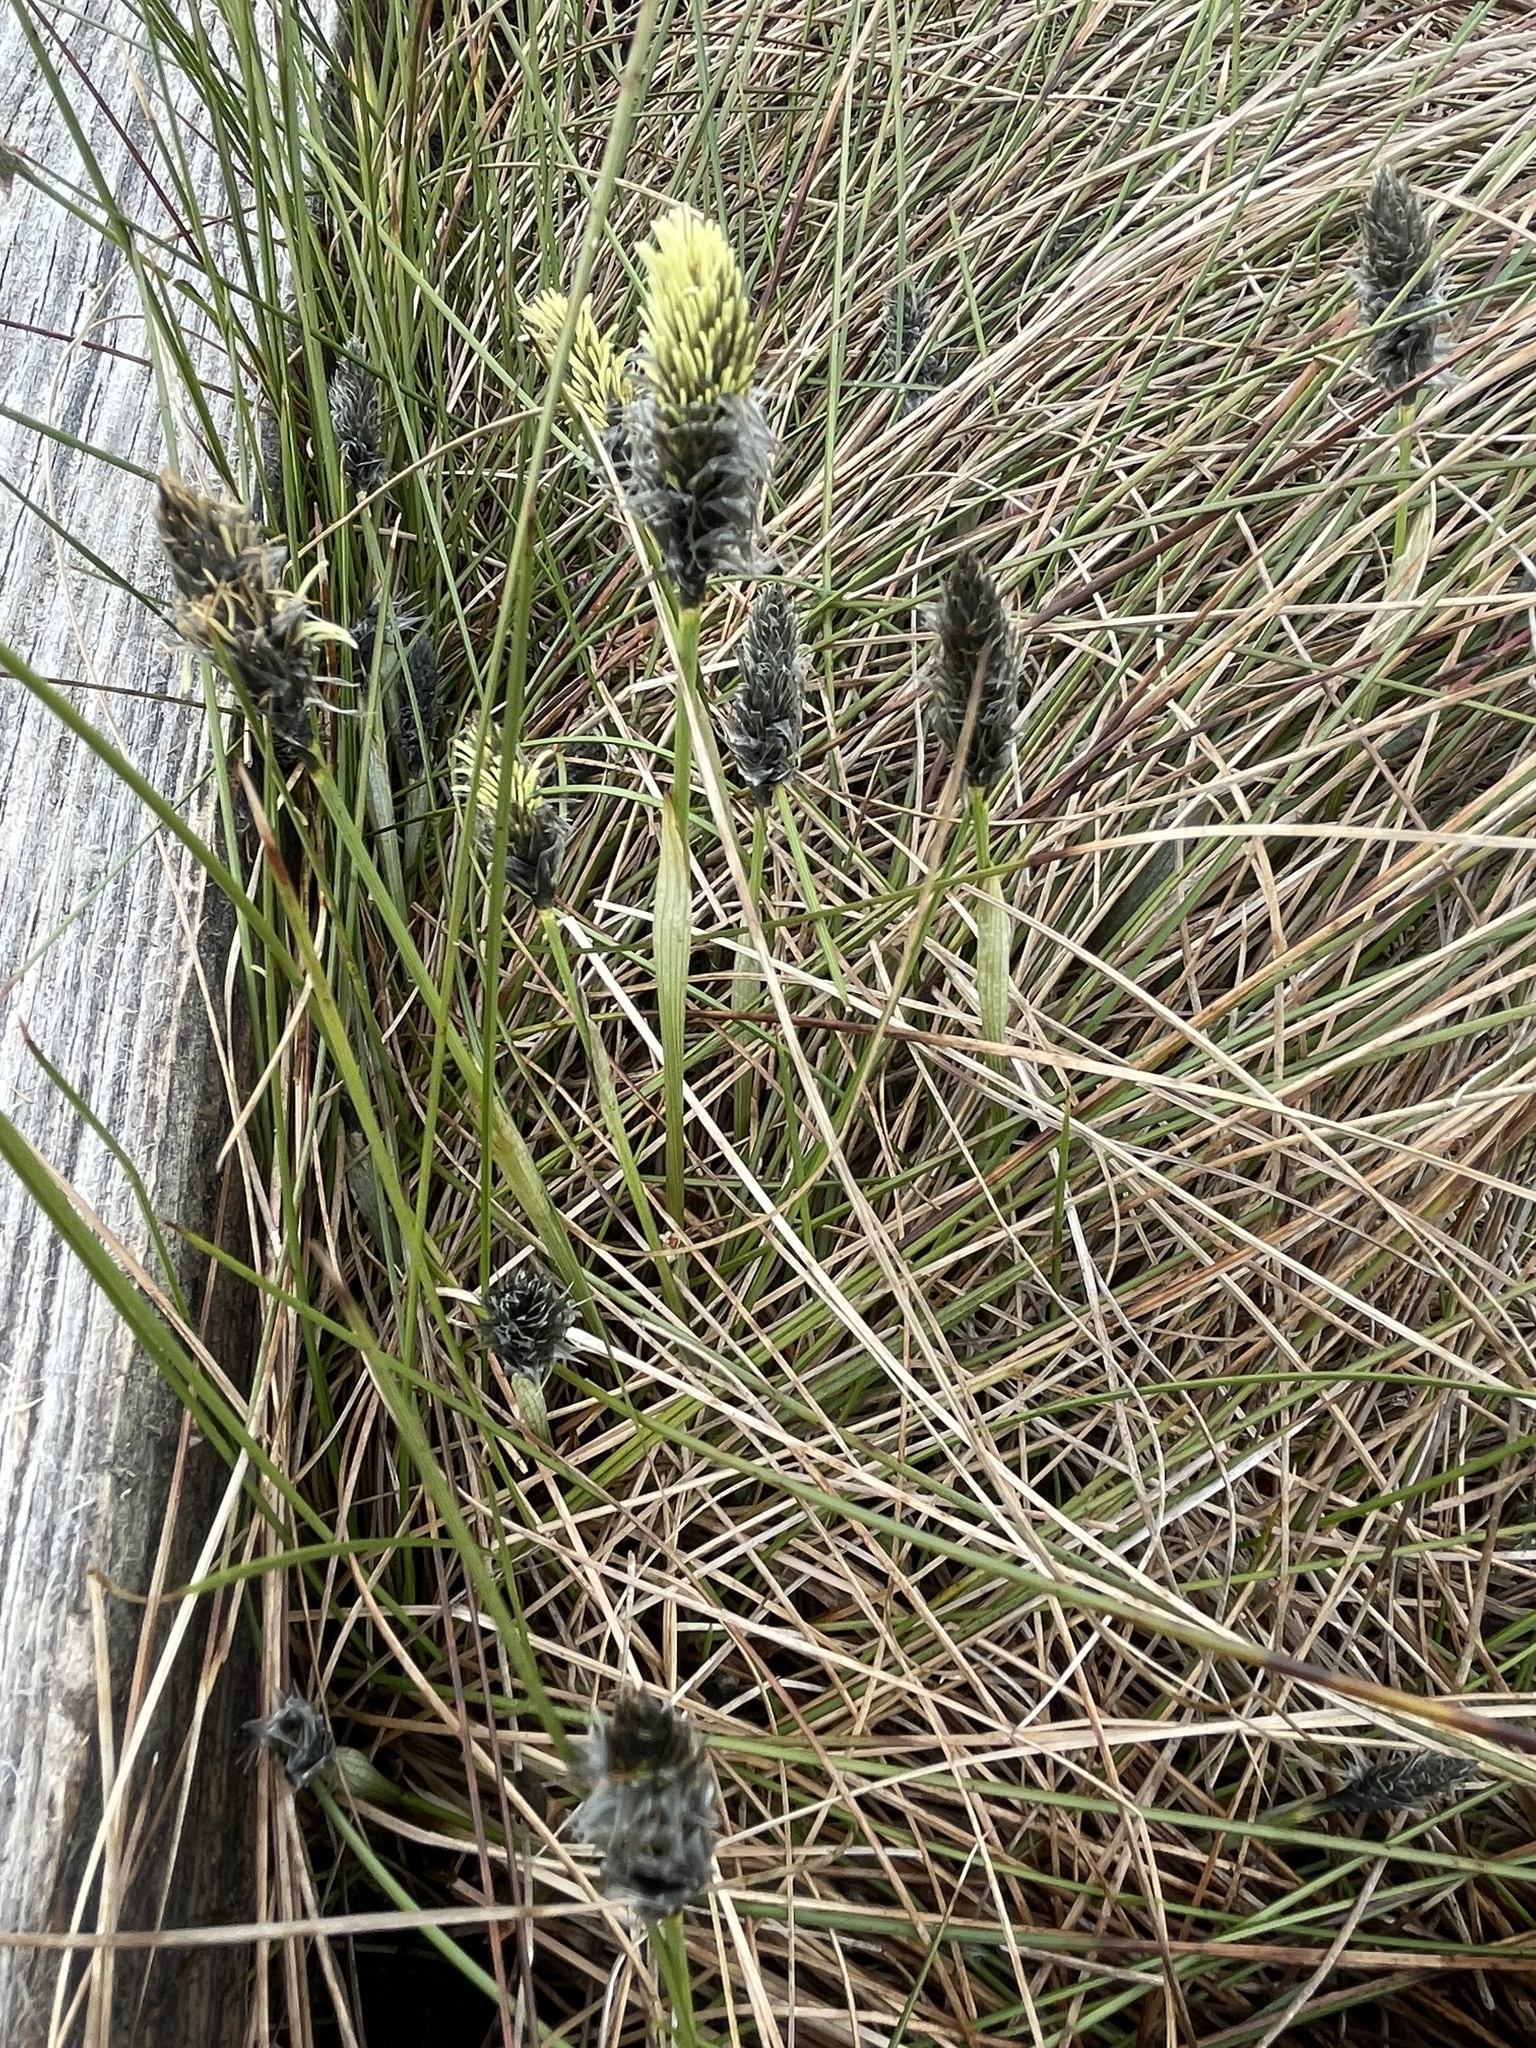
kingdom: Plantae
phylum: Tracheophyta
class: Liliopsida
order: Poales
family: Cyperaceae
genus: Eriophorum
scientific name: Eriophorum vaginatum
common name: Hare's-tail cottongrass
